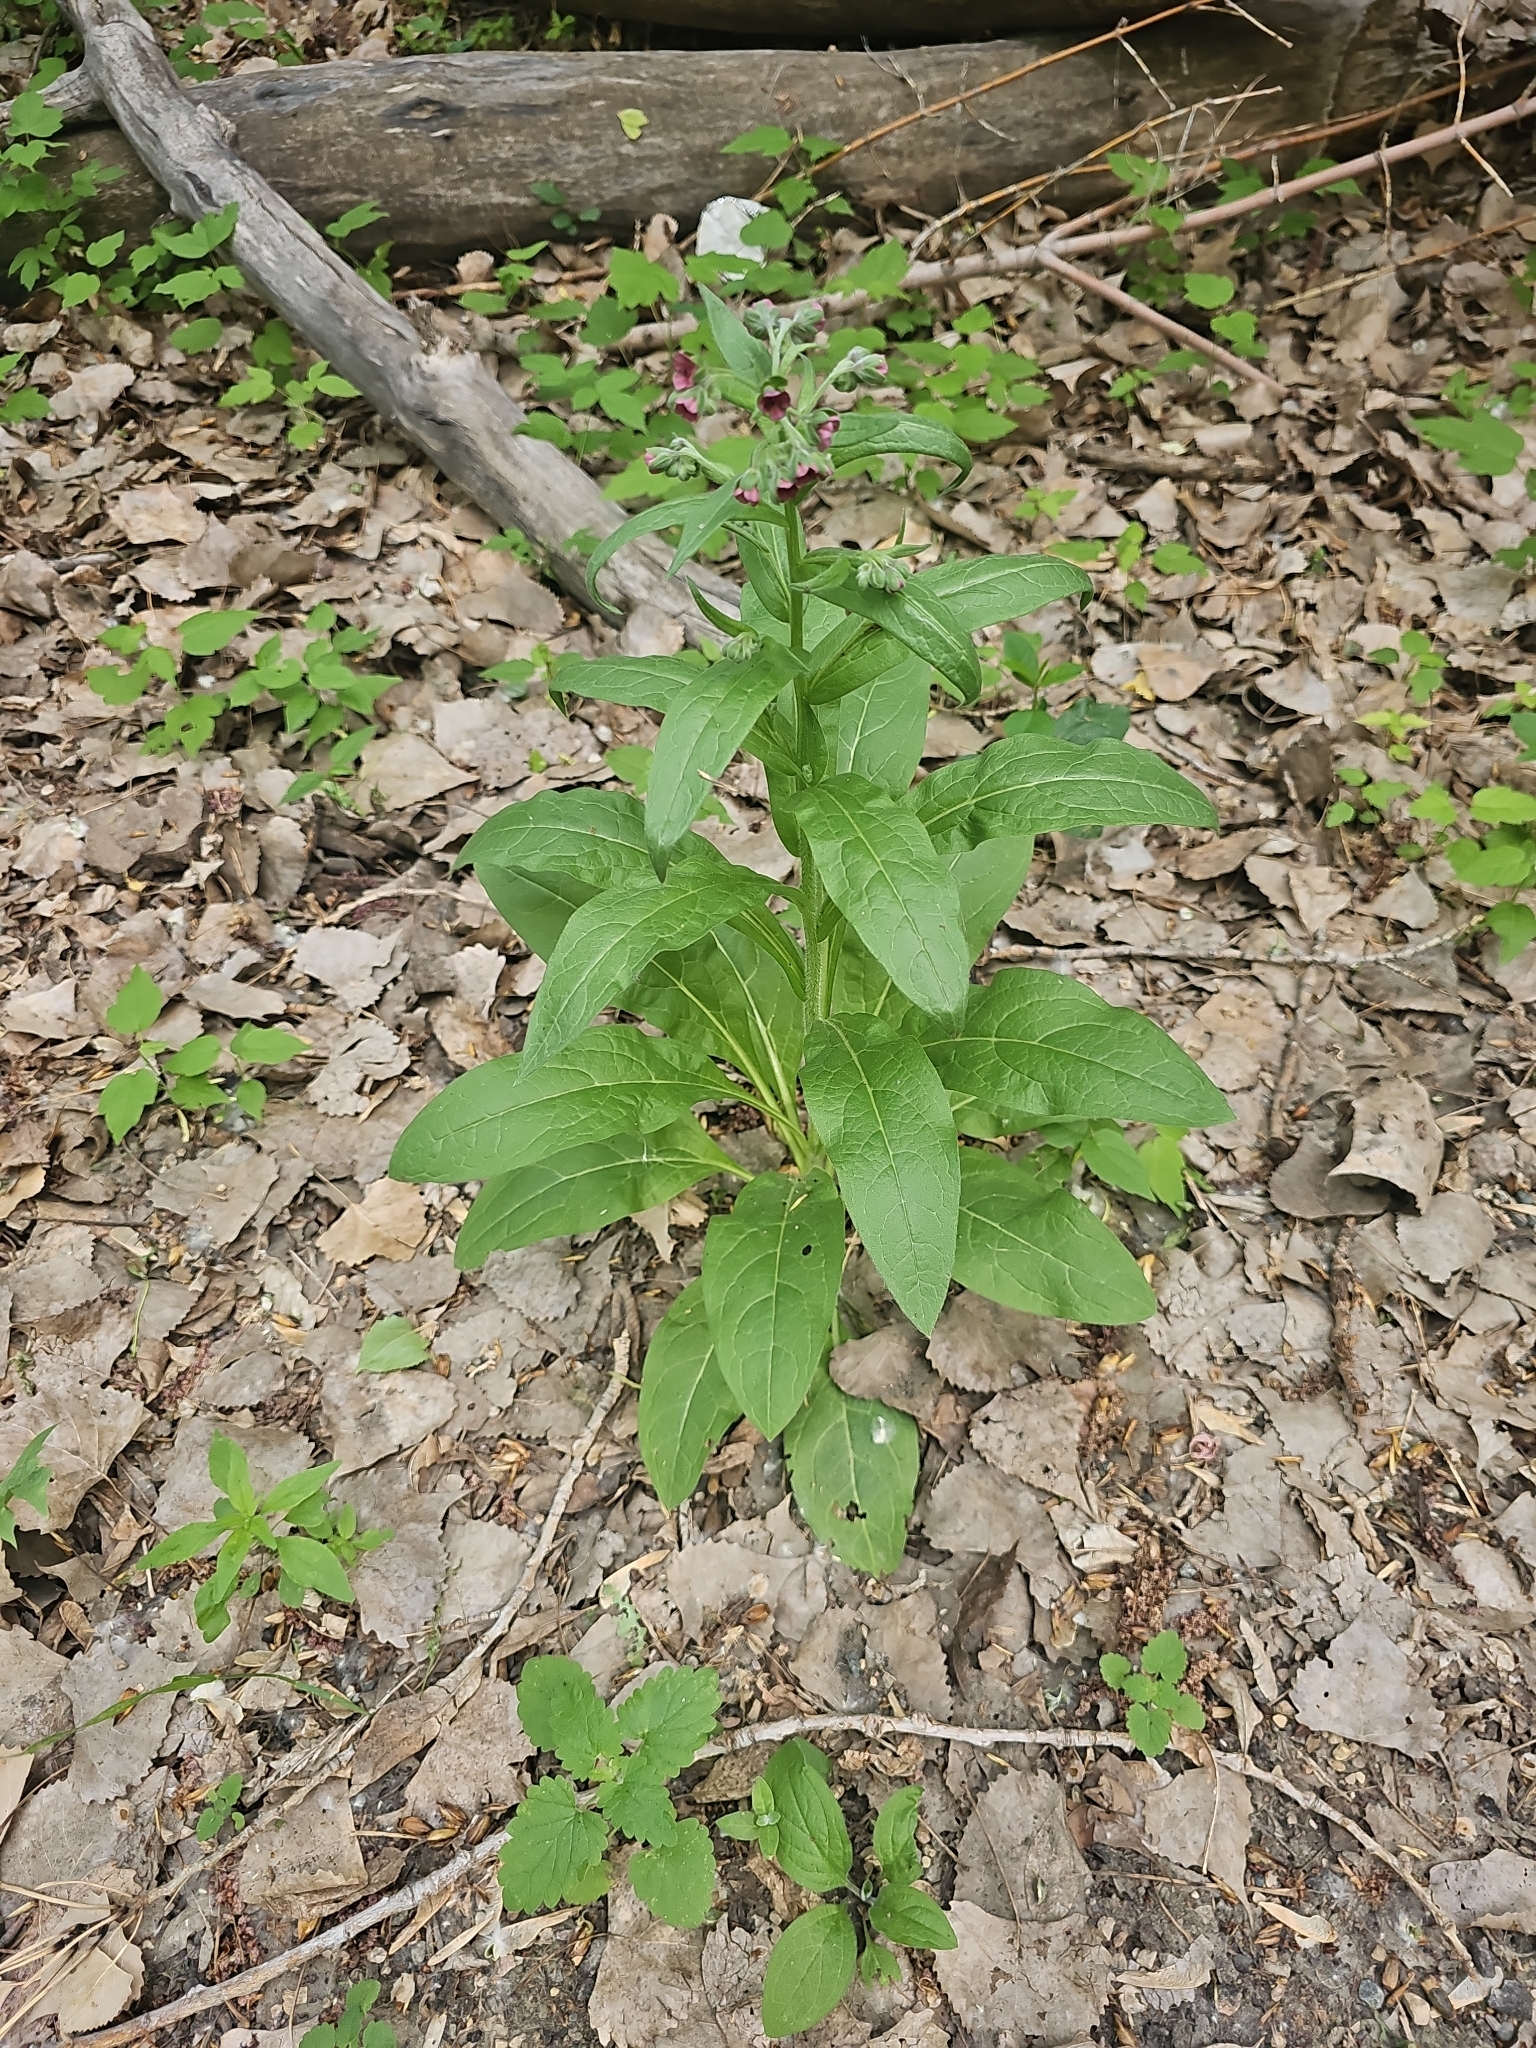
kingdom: Plantae
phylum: Tracheophyta
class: Magnoliopsida
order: Boraginales
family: Boraginaceae
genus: Cynoglossum
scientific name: Cynoglossum officinale
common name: Hound's-tongue
